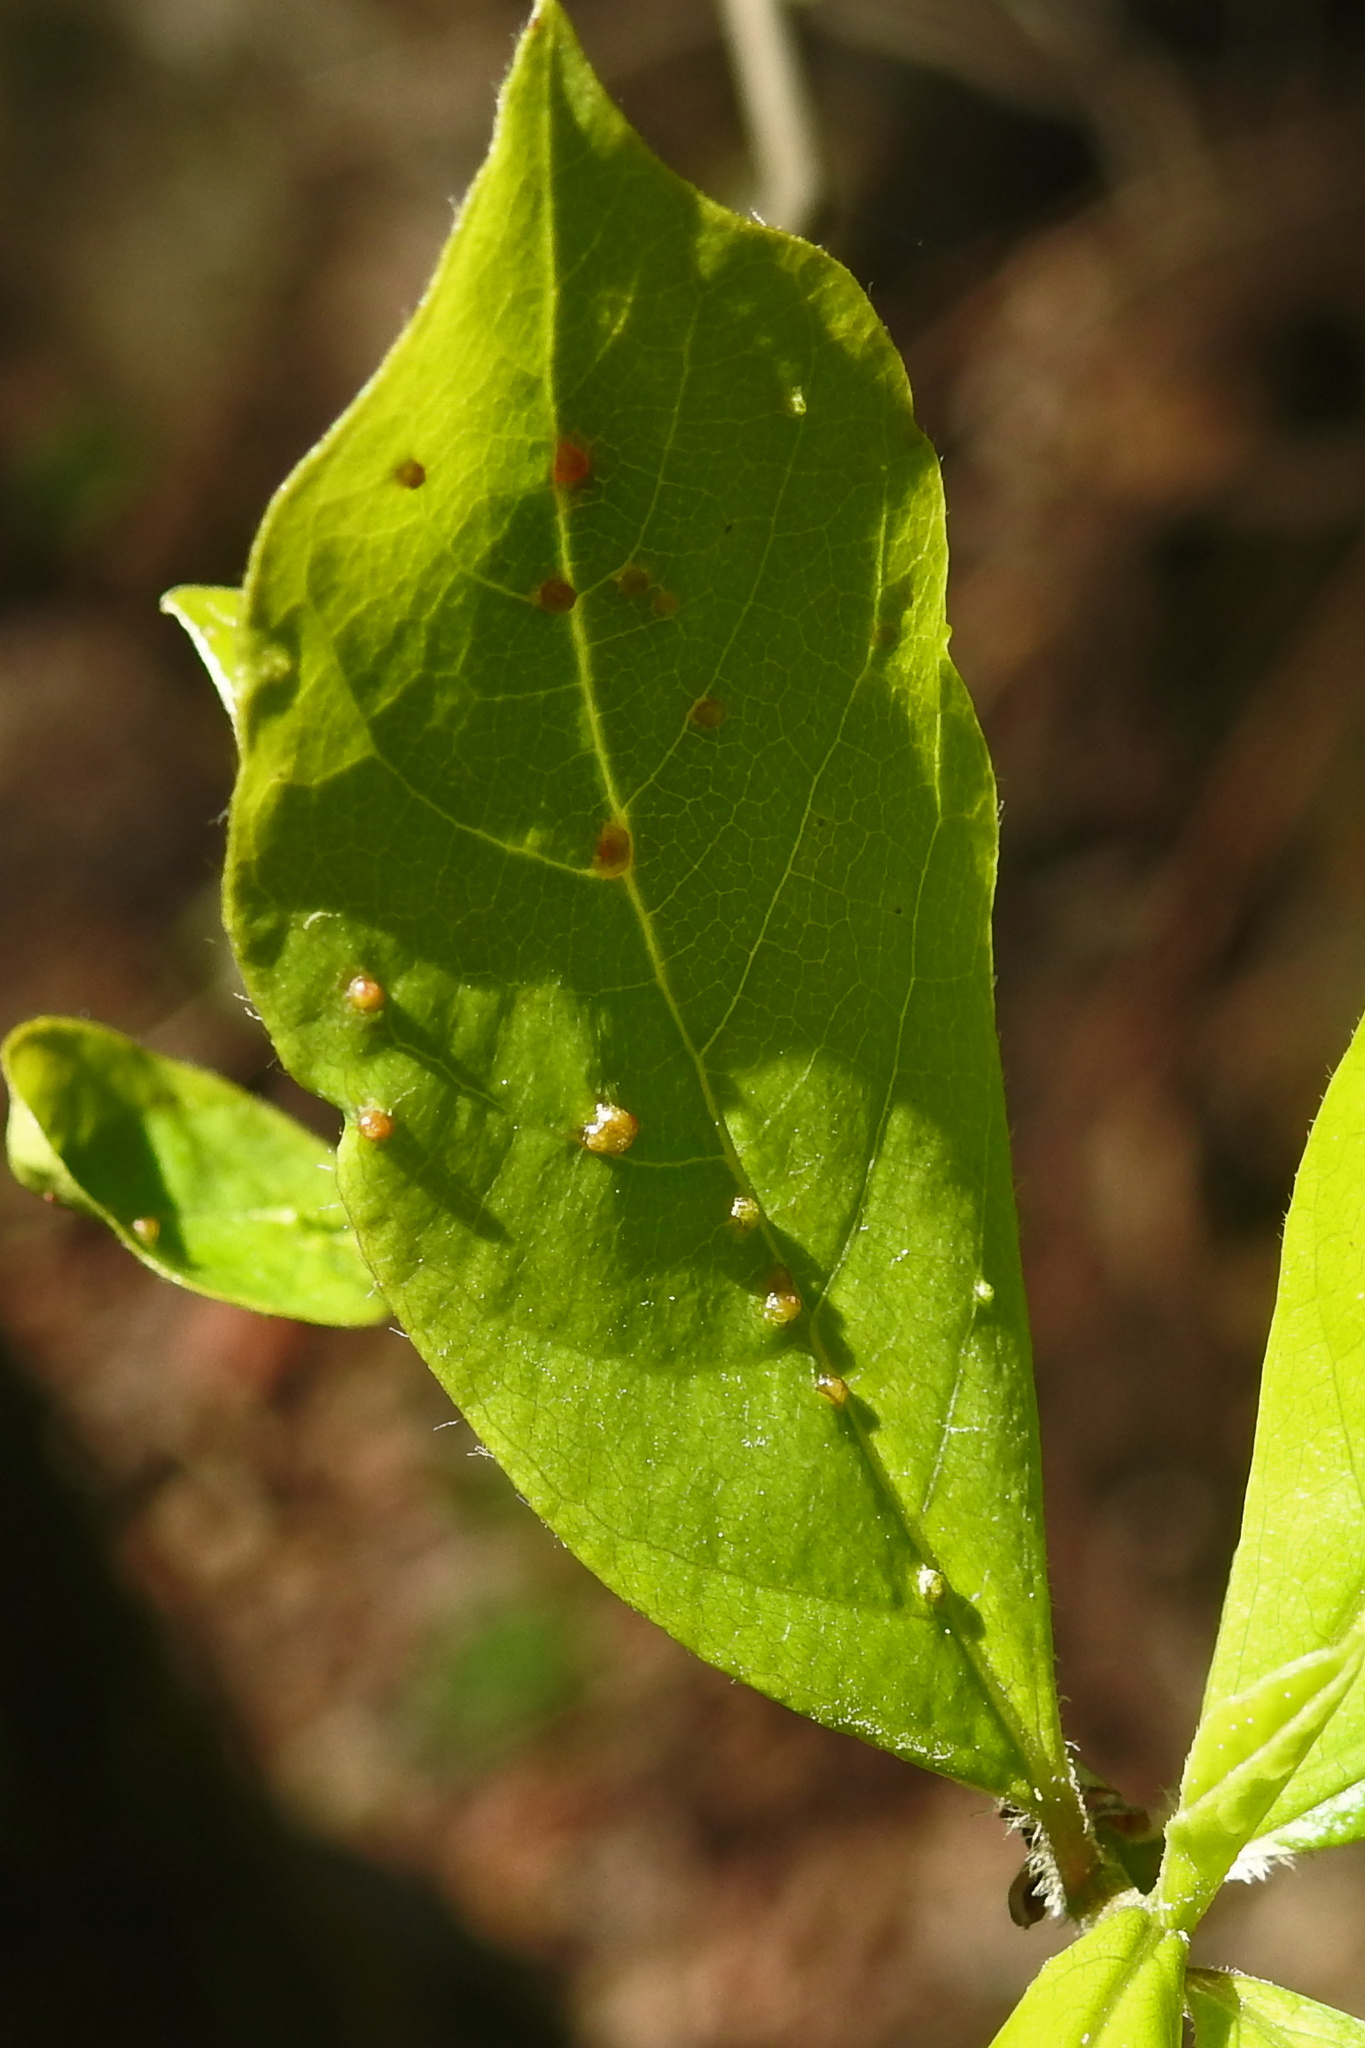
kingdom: Animalia
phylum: Arthropoda
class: Arachnida
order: Trombidiformes
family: Eriophyidae
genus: Aceria
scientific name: Aceria
